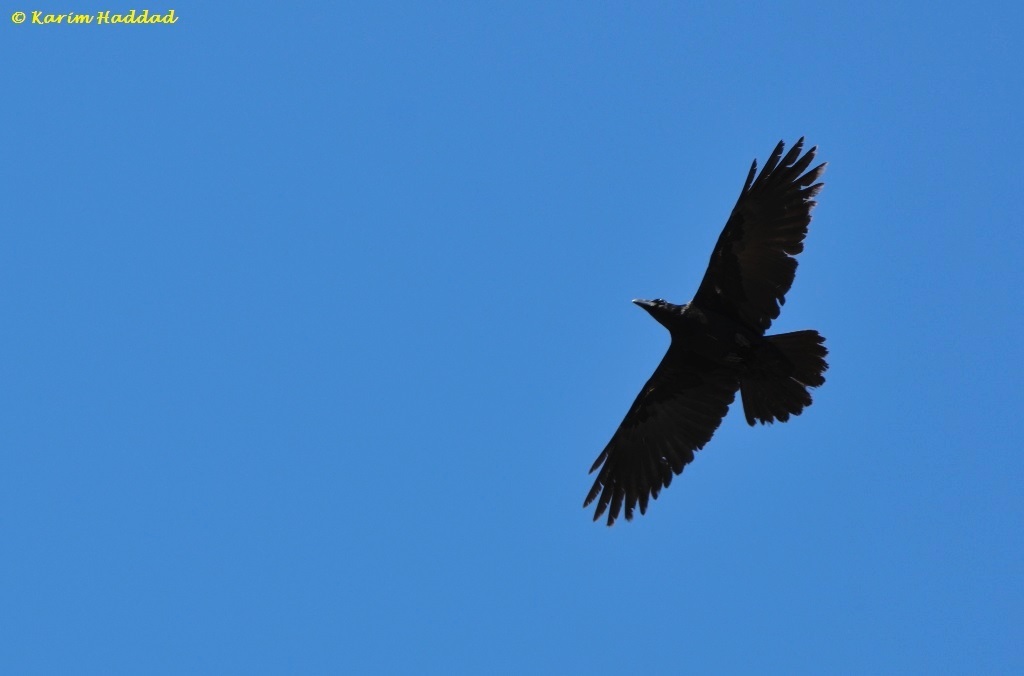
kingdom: Animalia
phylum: Chordata
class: Aves
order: Passeriformes
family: Corvidae
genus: Corvus
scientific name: Corvus corax
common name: Common raven
